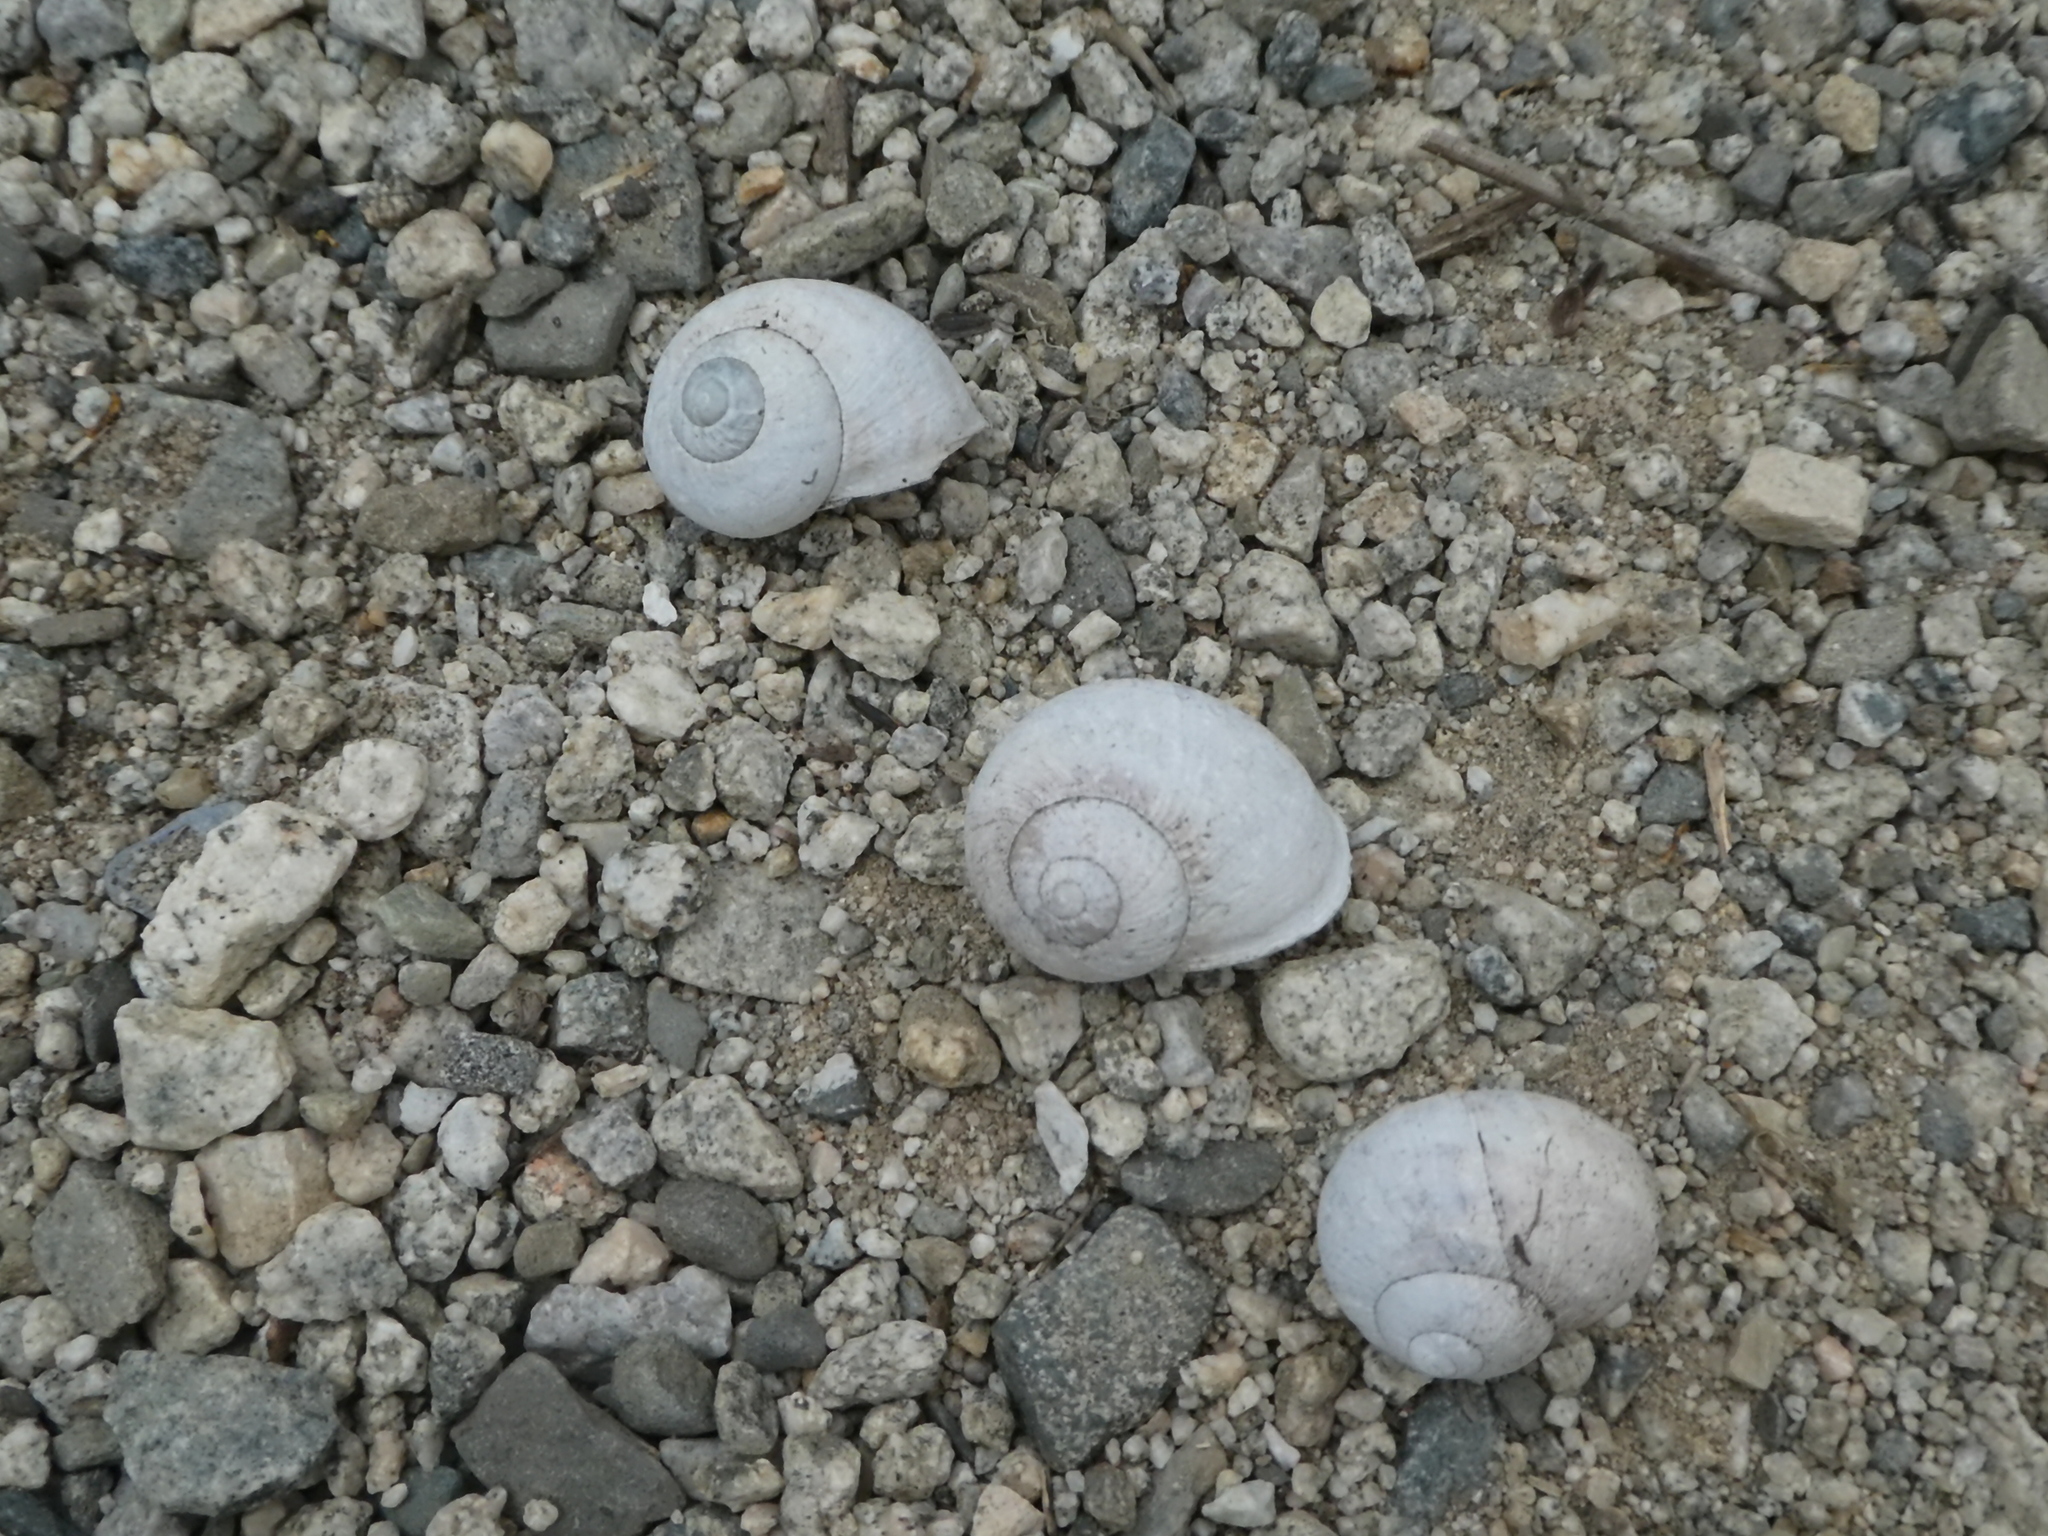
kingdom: Animalia
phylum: Mollusca
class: Gastropoda
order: Stylommatophora
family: Helicidae
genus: Cornu
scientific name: Cornu aspersum
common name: Brown garden snail
